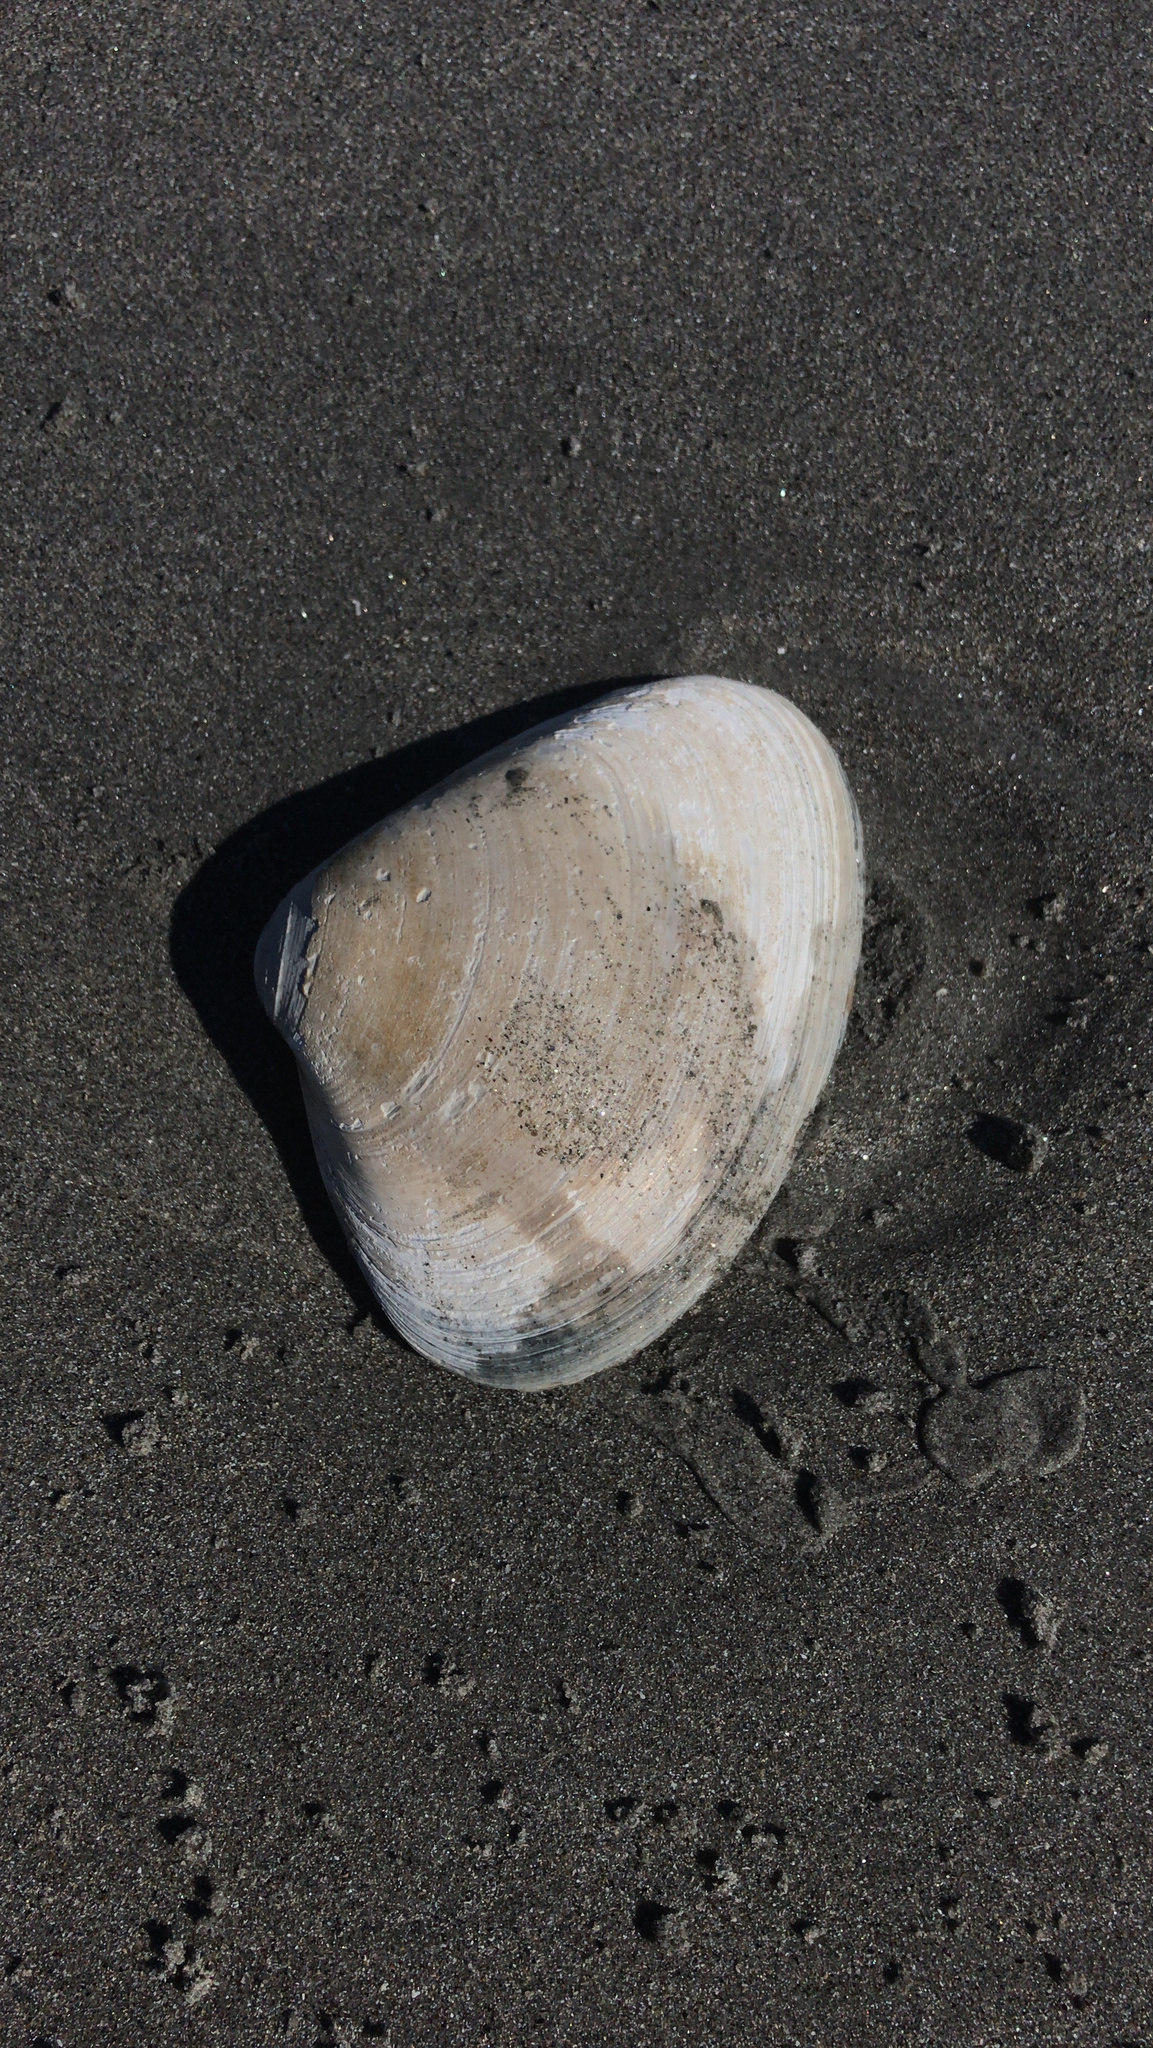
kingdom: Animalia
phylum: Mollusca
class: Bivalvia
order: Venerida
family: Mactridae
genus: Spisula
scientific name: Spisula solidissima
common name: Atlantic surf clam
